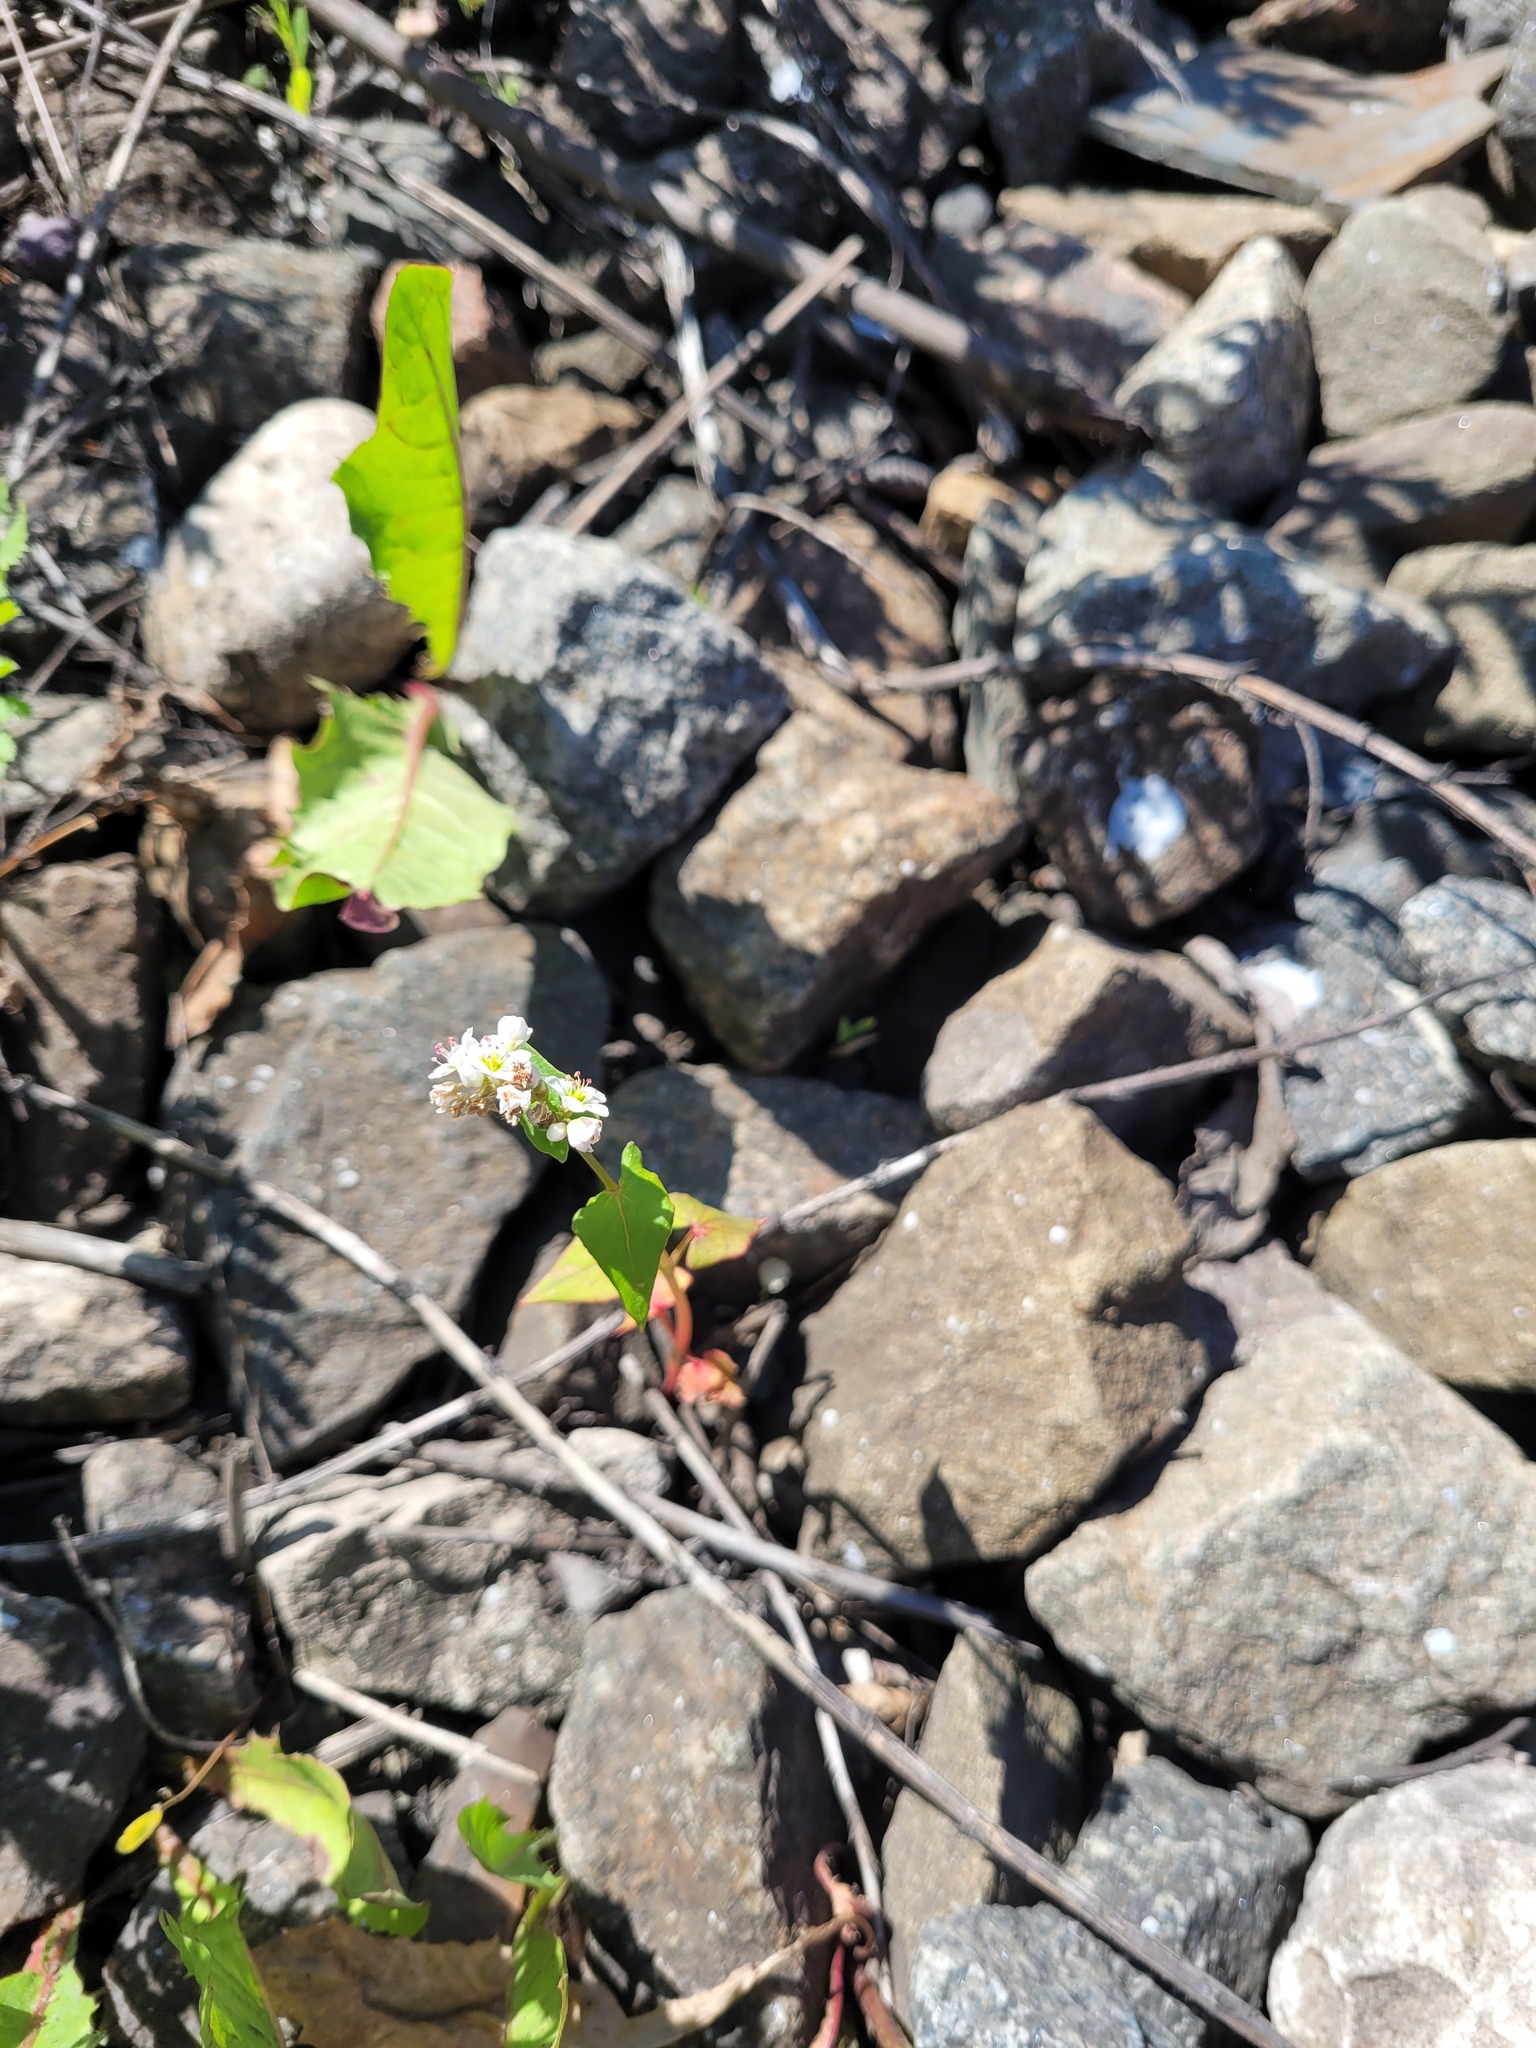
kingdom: Plantae
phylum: Tracheophyta
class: Magnoliopsida
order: Caryophyllales
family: Polygonaceae
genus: Fagopyrum
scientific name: Fagopyrum esculentum
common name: Buckwheat
